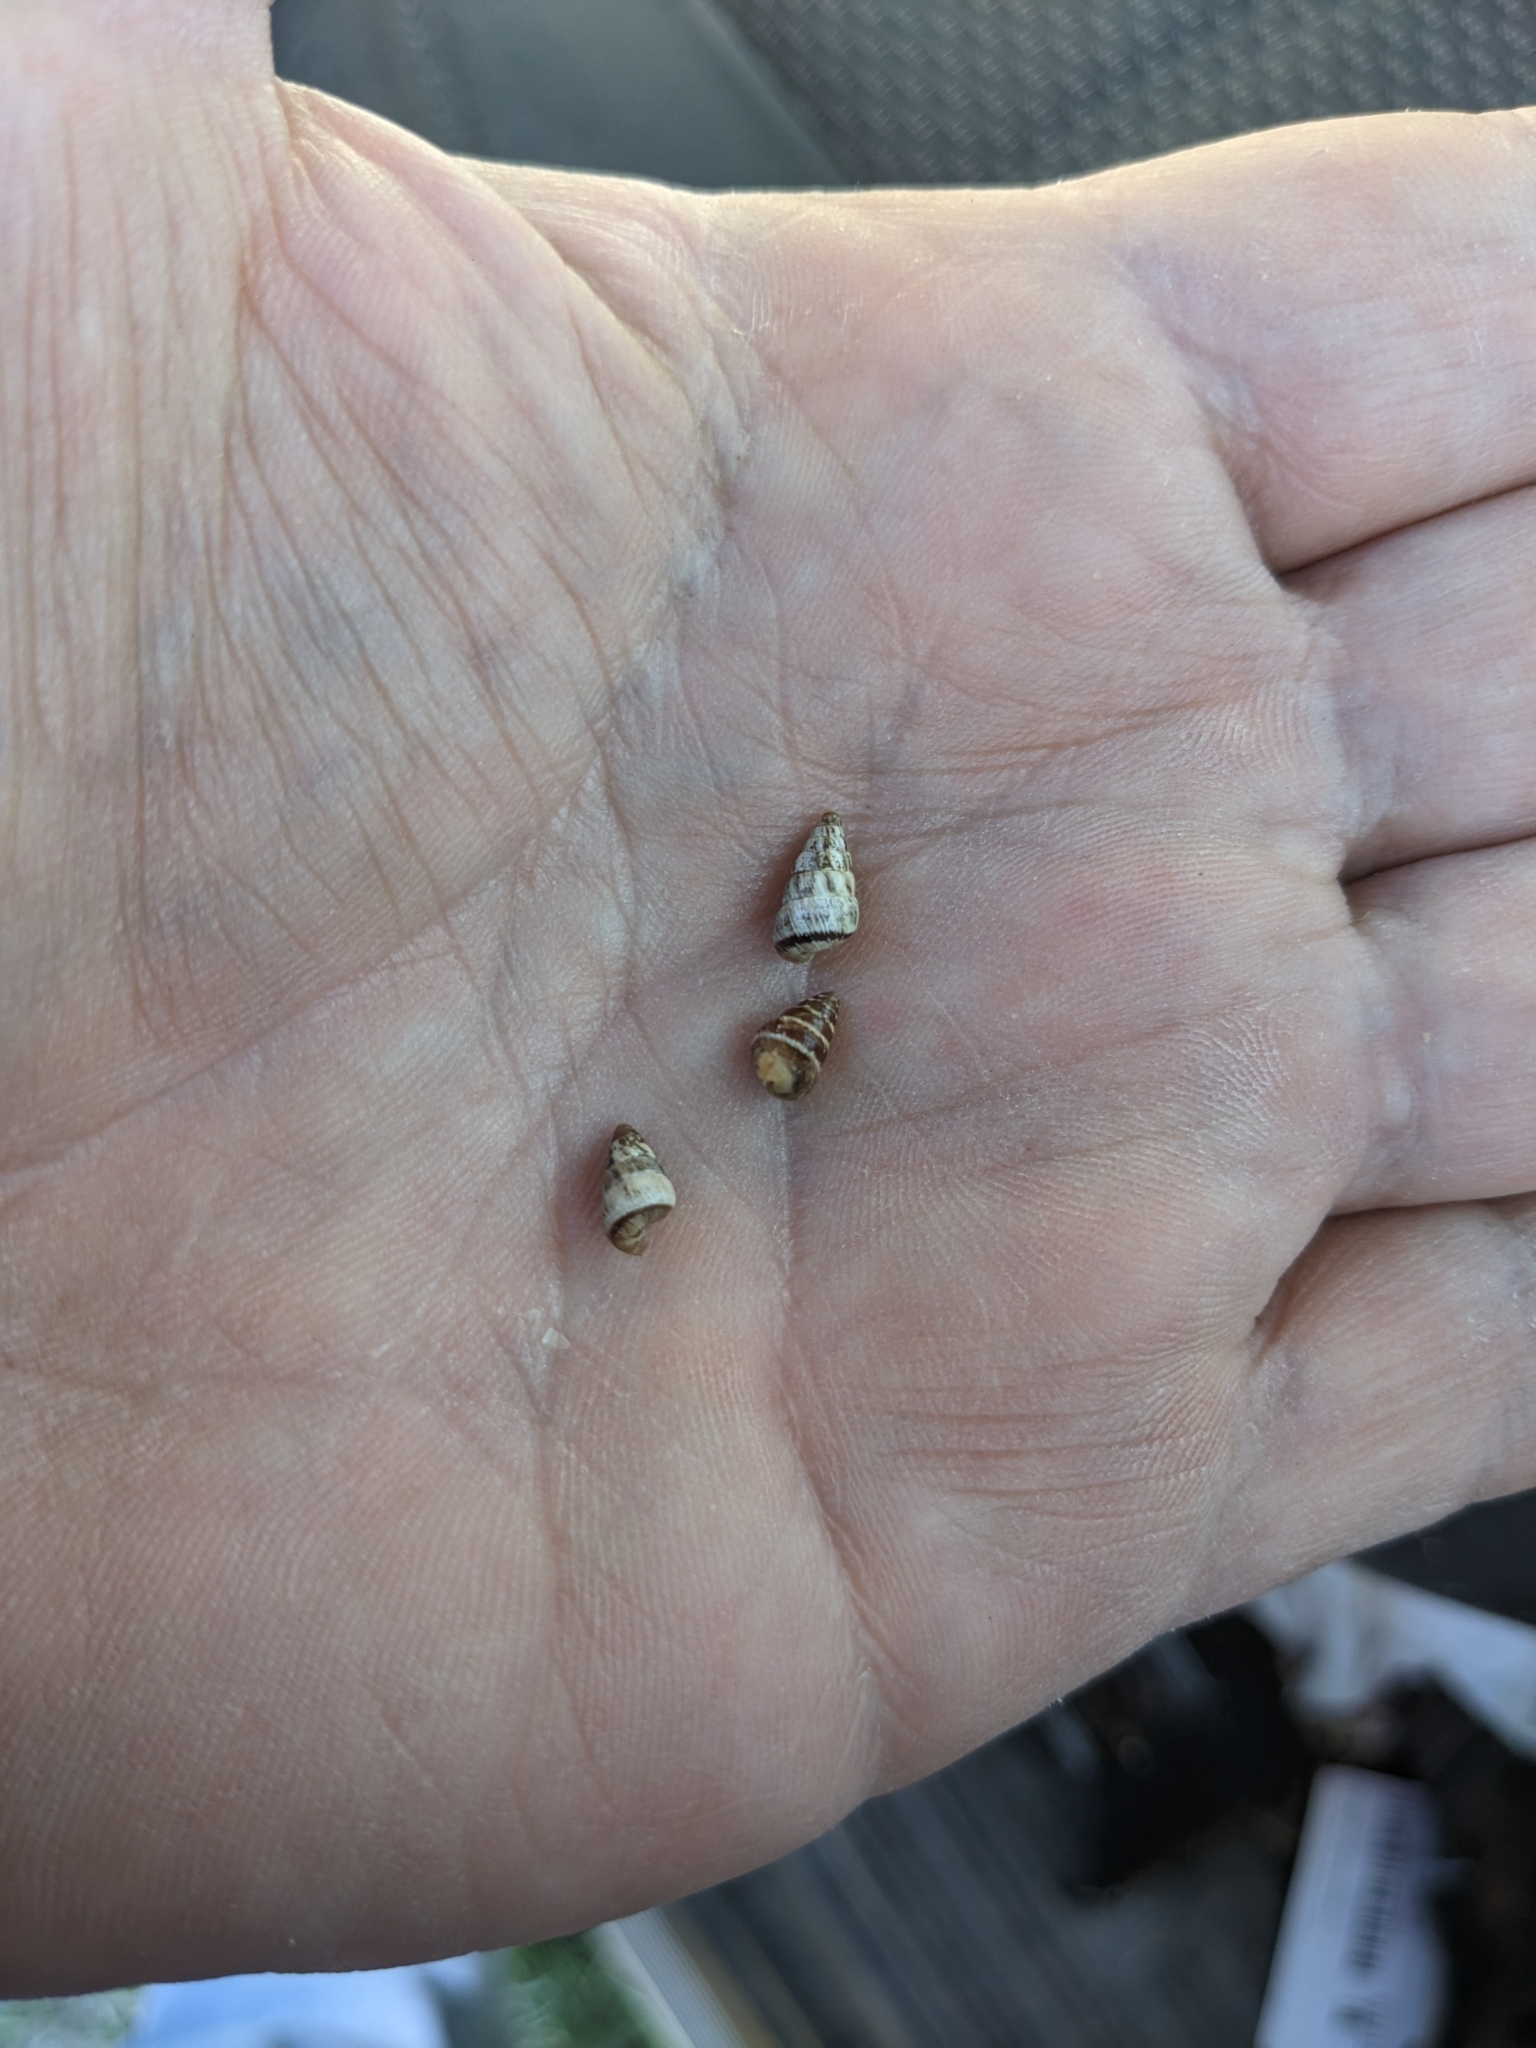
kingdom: Animalia
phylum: Mollusca
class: Gastropoda
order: Stylommatophora
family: Geomitridae
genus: Cochlicella
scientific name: Cochlicella barbara
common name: Potbellied helicellid
